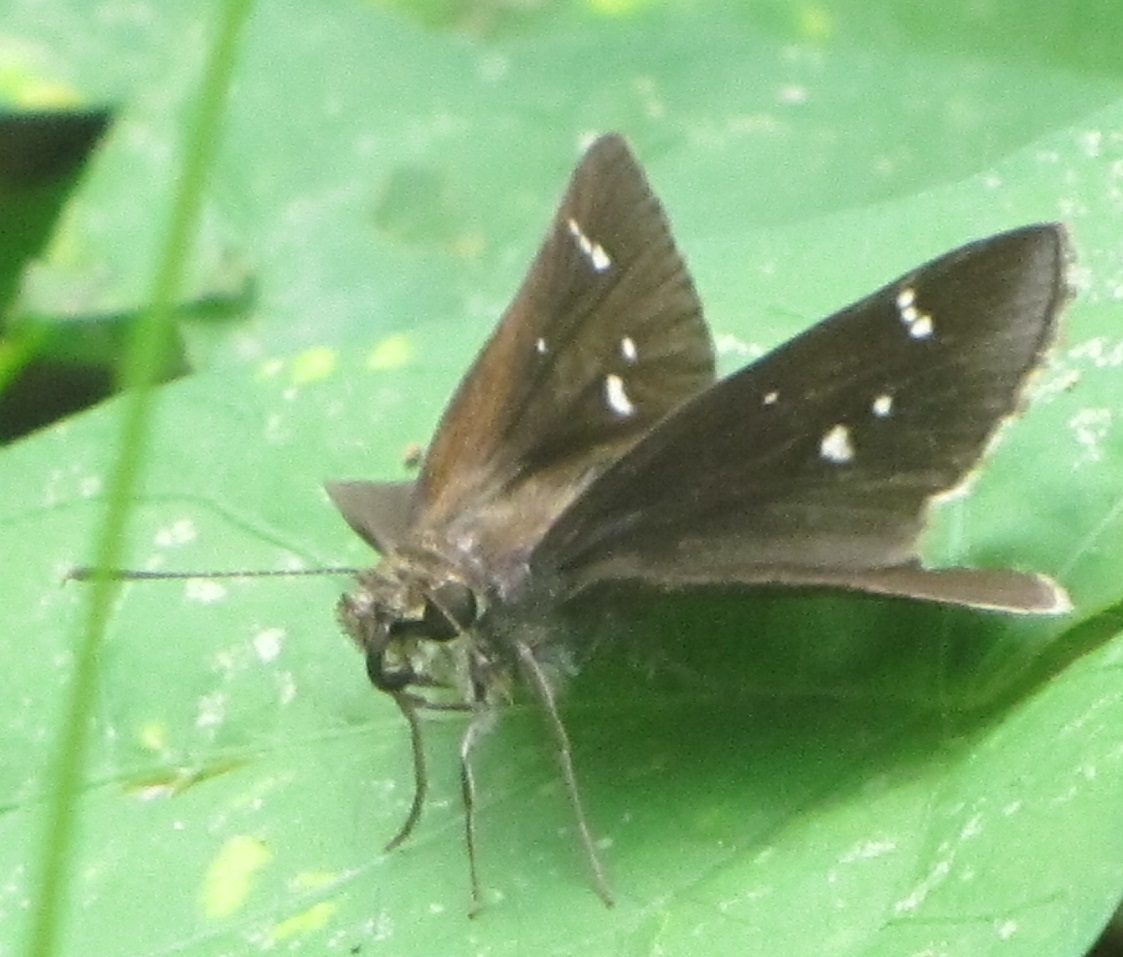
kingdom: Animalia
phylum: Arthropoda
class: Insecta
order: Lepidoptera
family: Hesperiidae
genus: Lerema
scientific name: Lerema accius
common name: Clouded skipper
